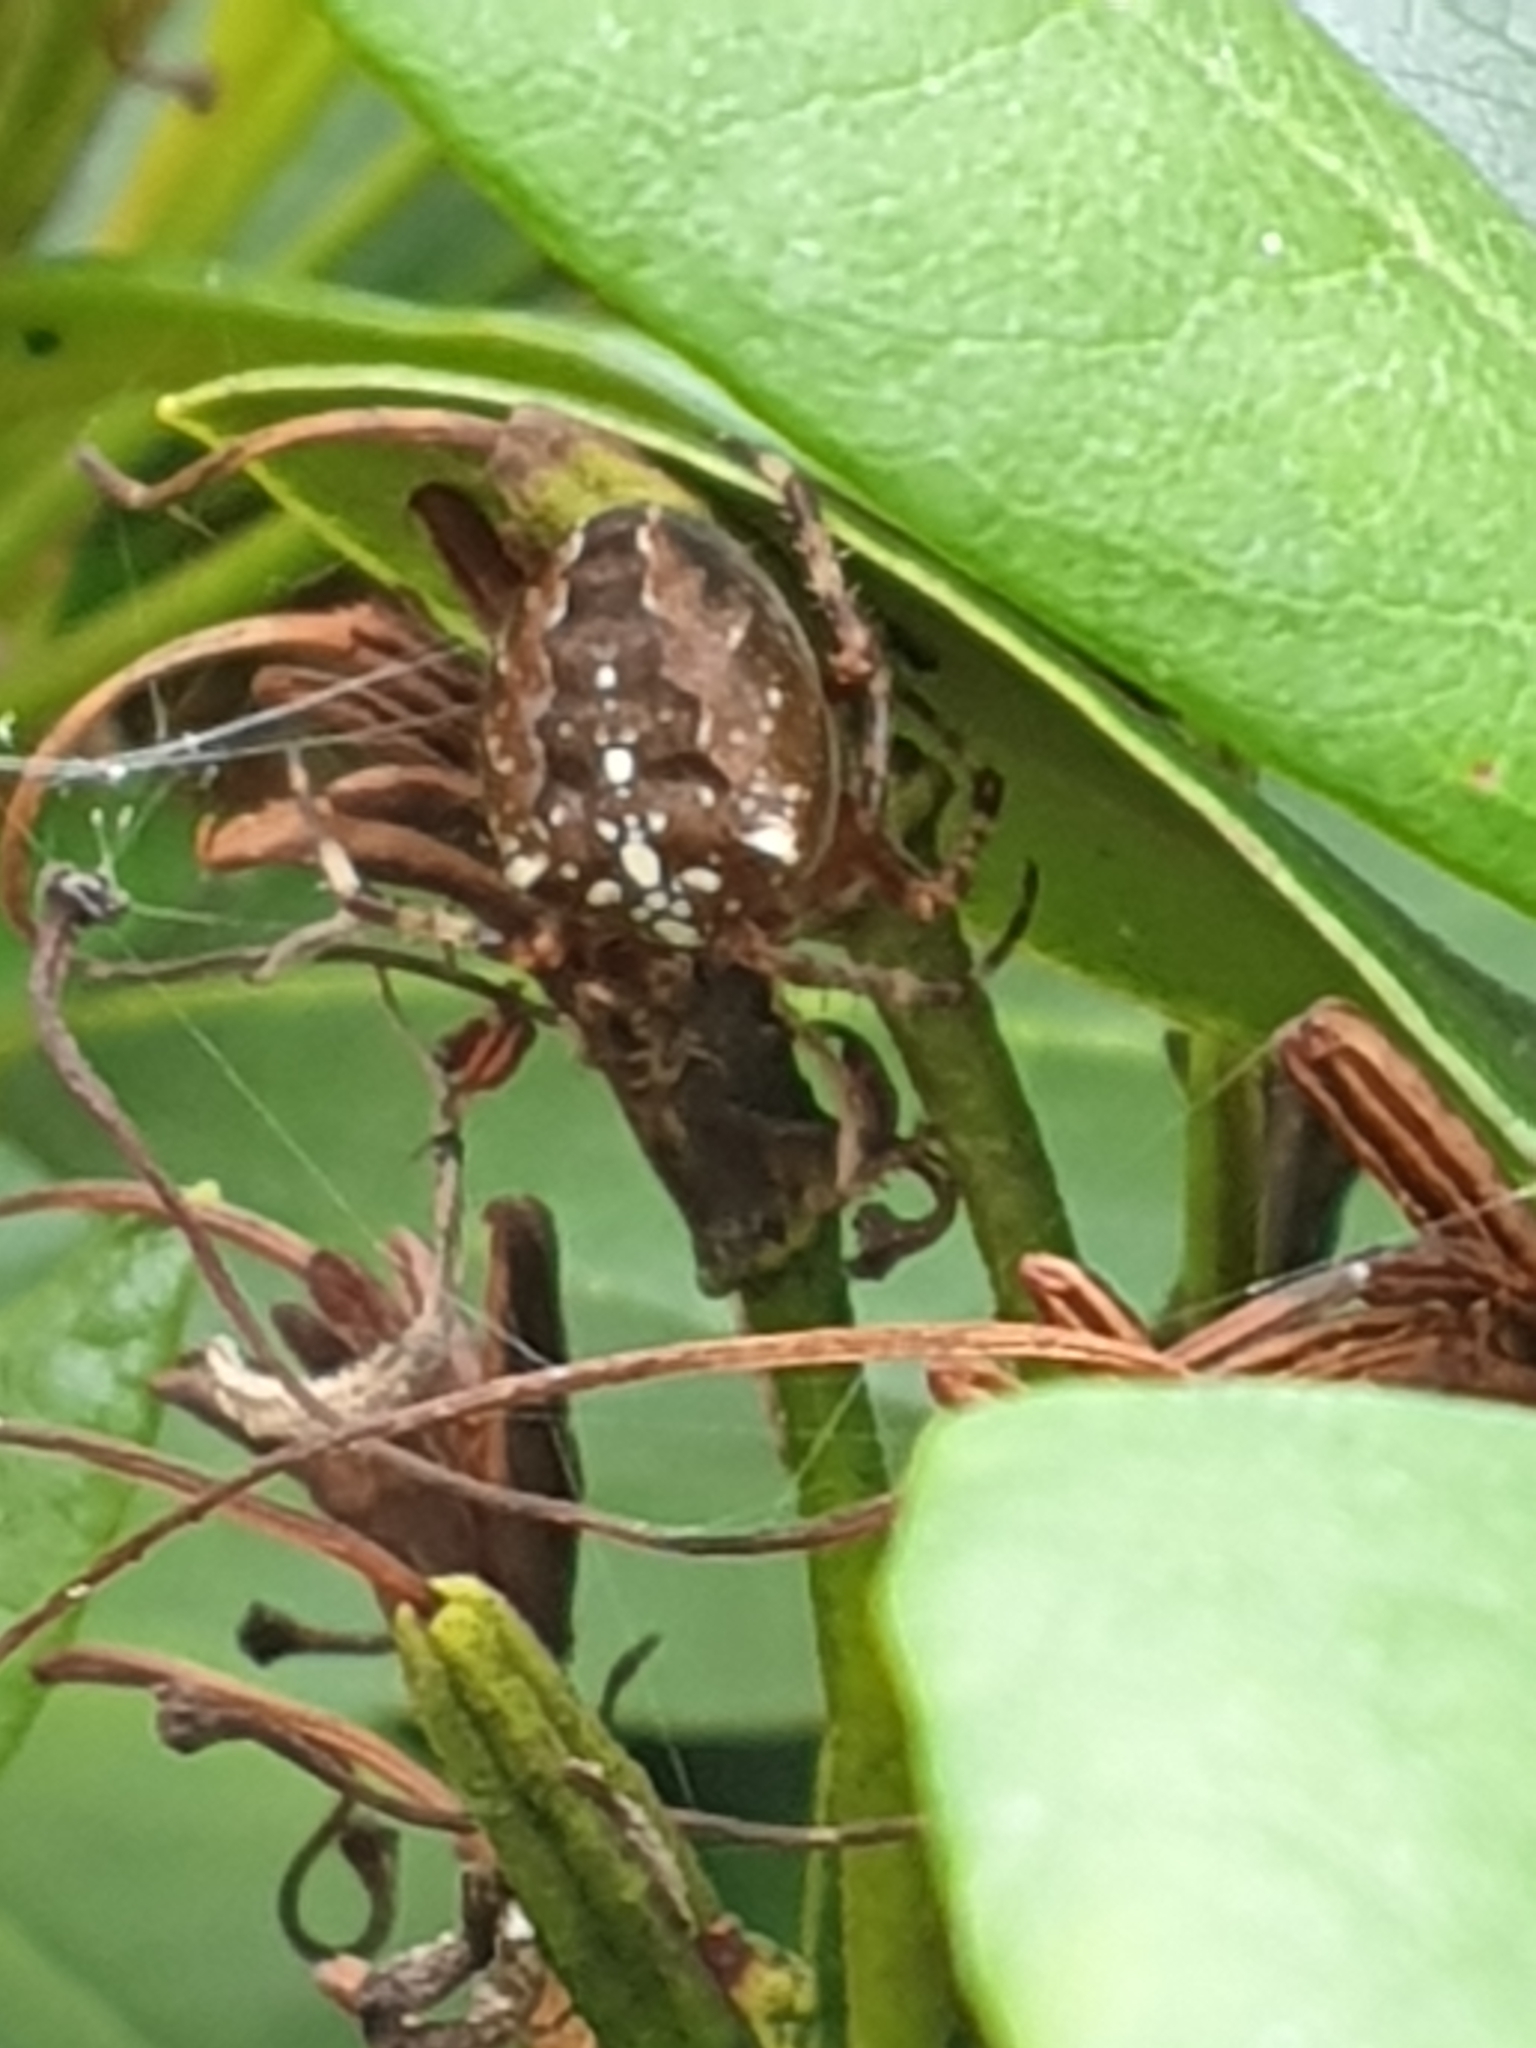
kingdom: Animalia
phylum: Arthropoda
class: Arachnida
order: Araneae
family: Araneidae
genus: Araneus
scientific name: Araneus diadematus
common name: Cross orbweaver
